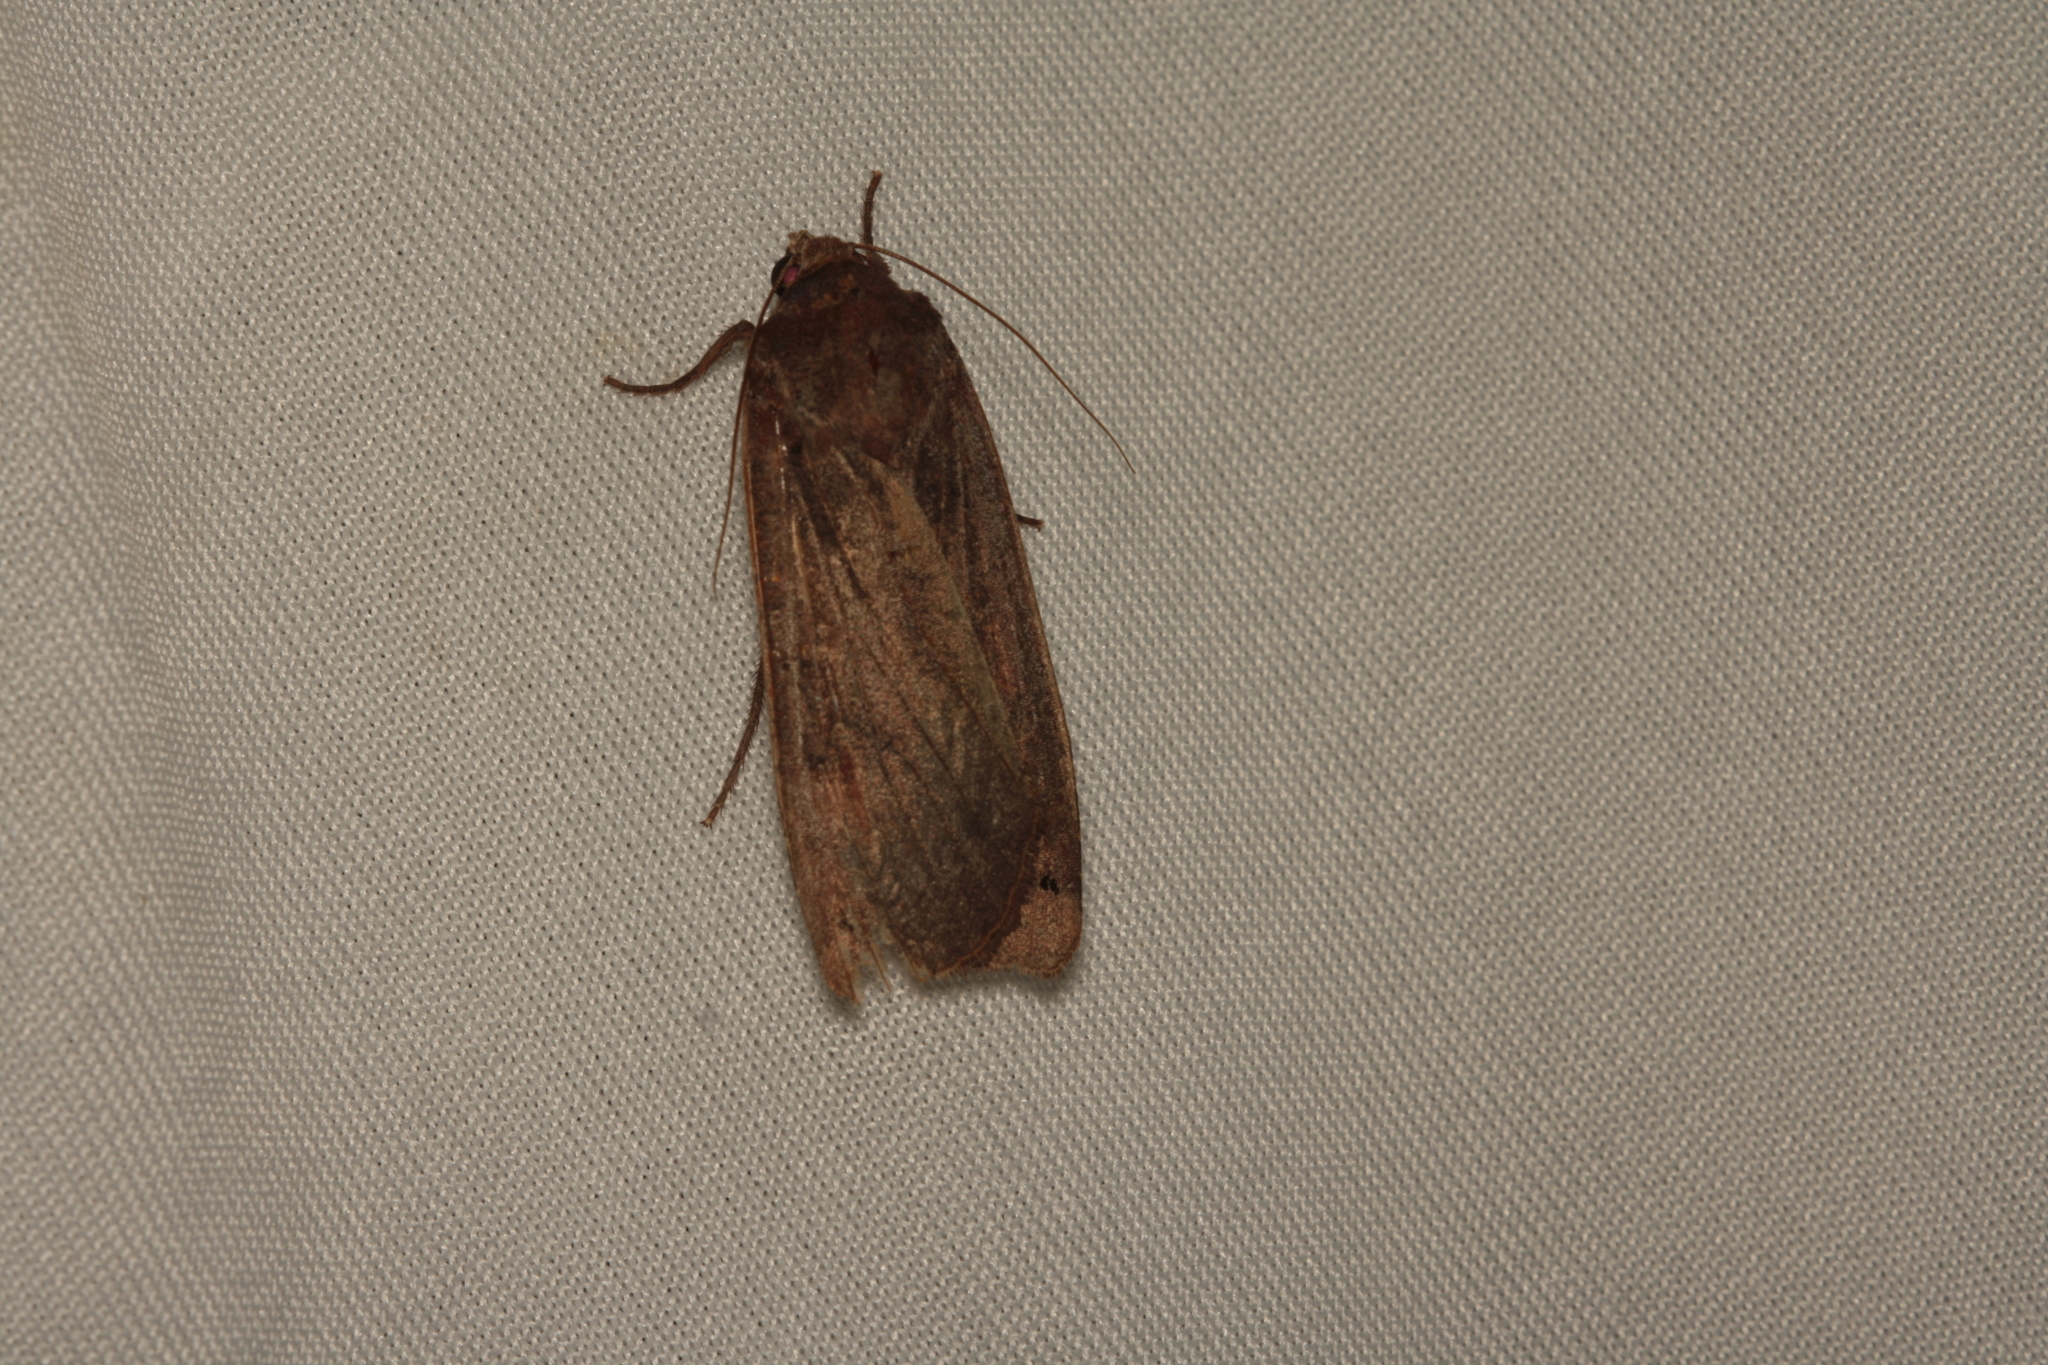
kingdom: Animalia
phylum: Arthropoda
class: Insecta
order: Lepidoptera
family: Noctuidae
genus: Noctua
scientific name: Noctua pronuba
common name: Large yellow underwing
